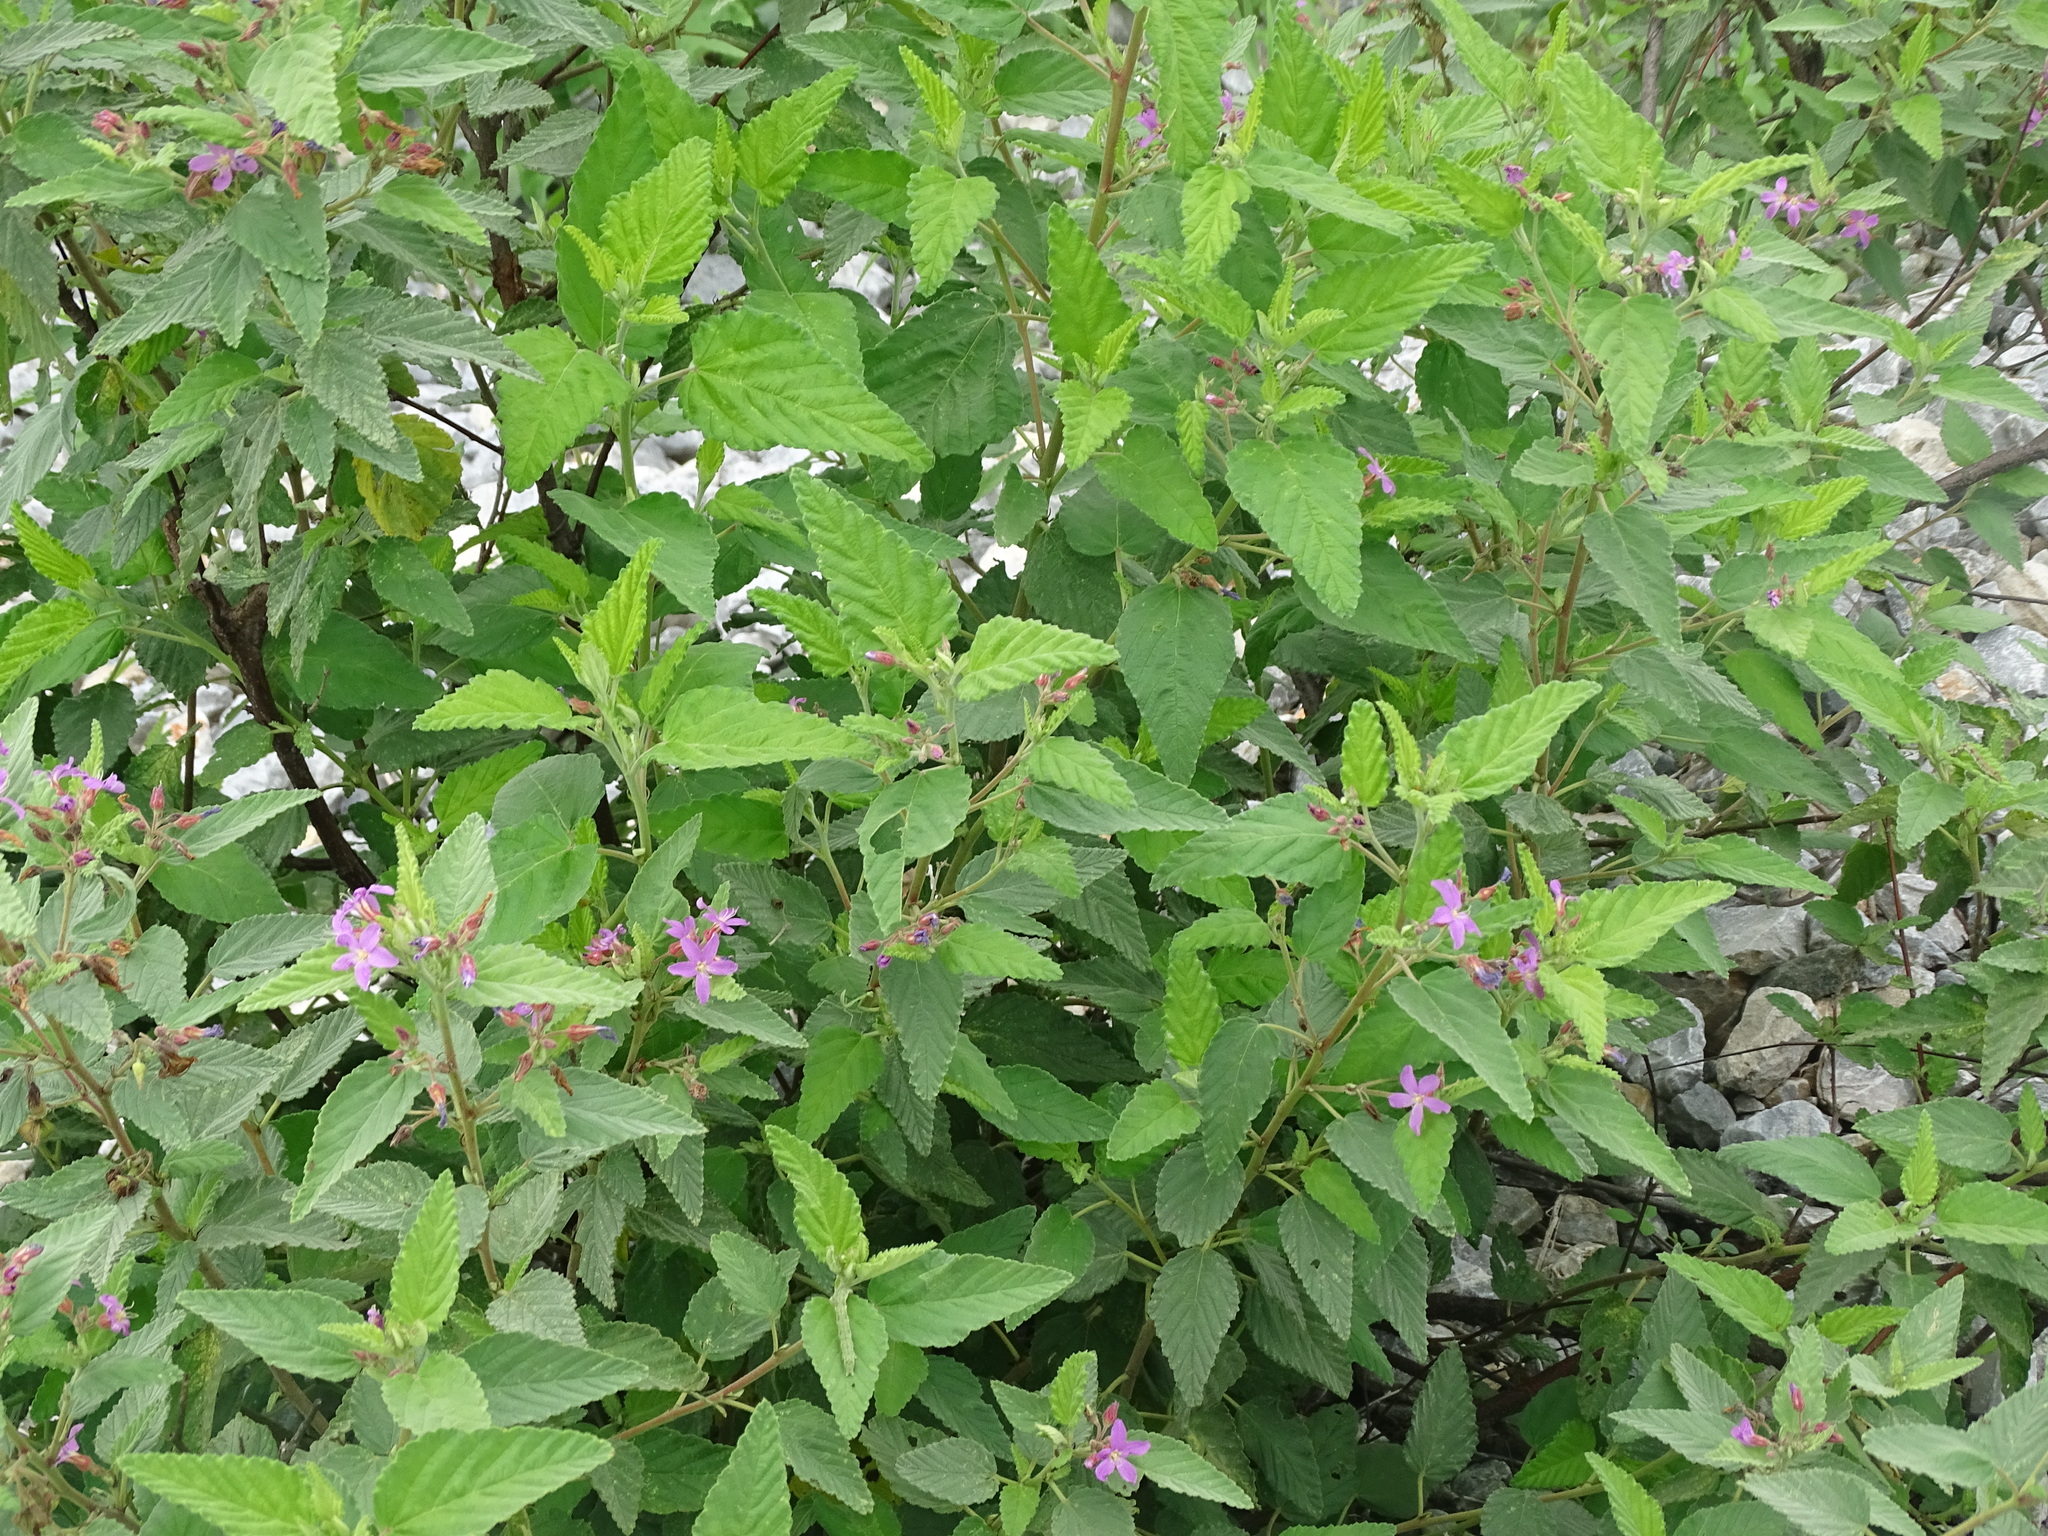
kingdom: Plantae
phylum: Tracheophyta
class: Magnoliopsida
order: Malvales
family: Malvaceae
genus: Melochia
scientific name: Melochia tomentosa
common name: Black torch
